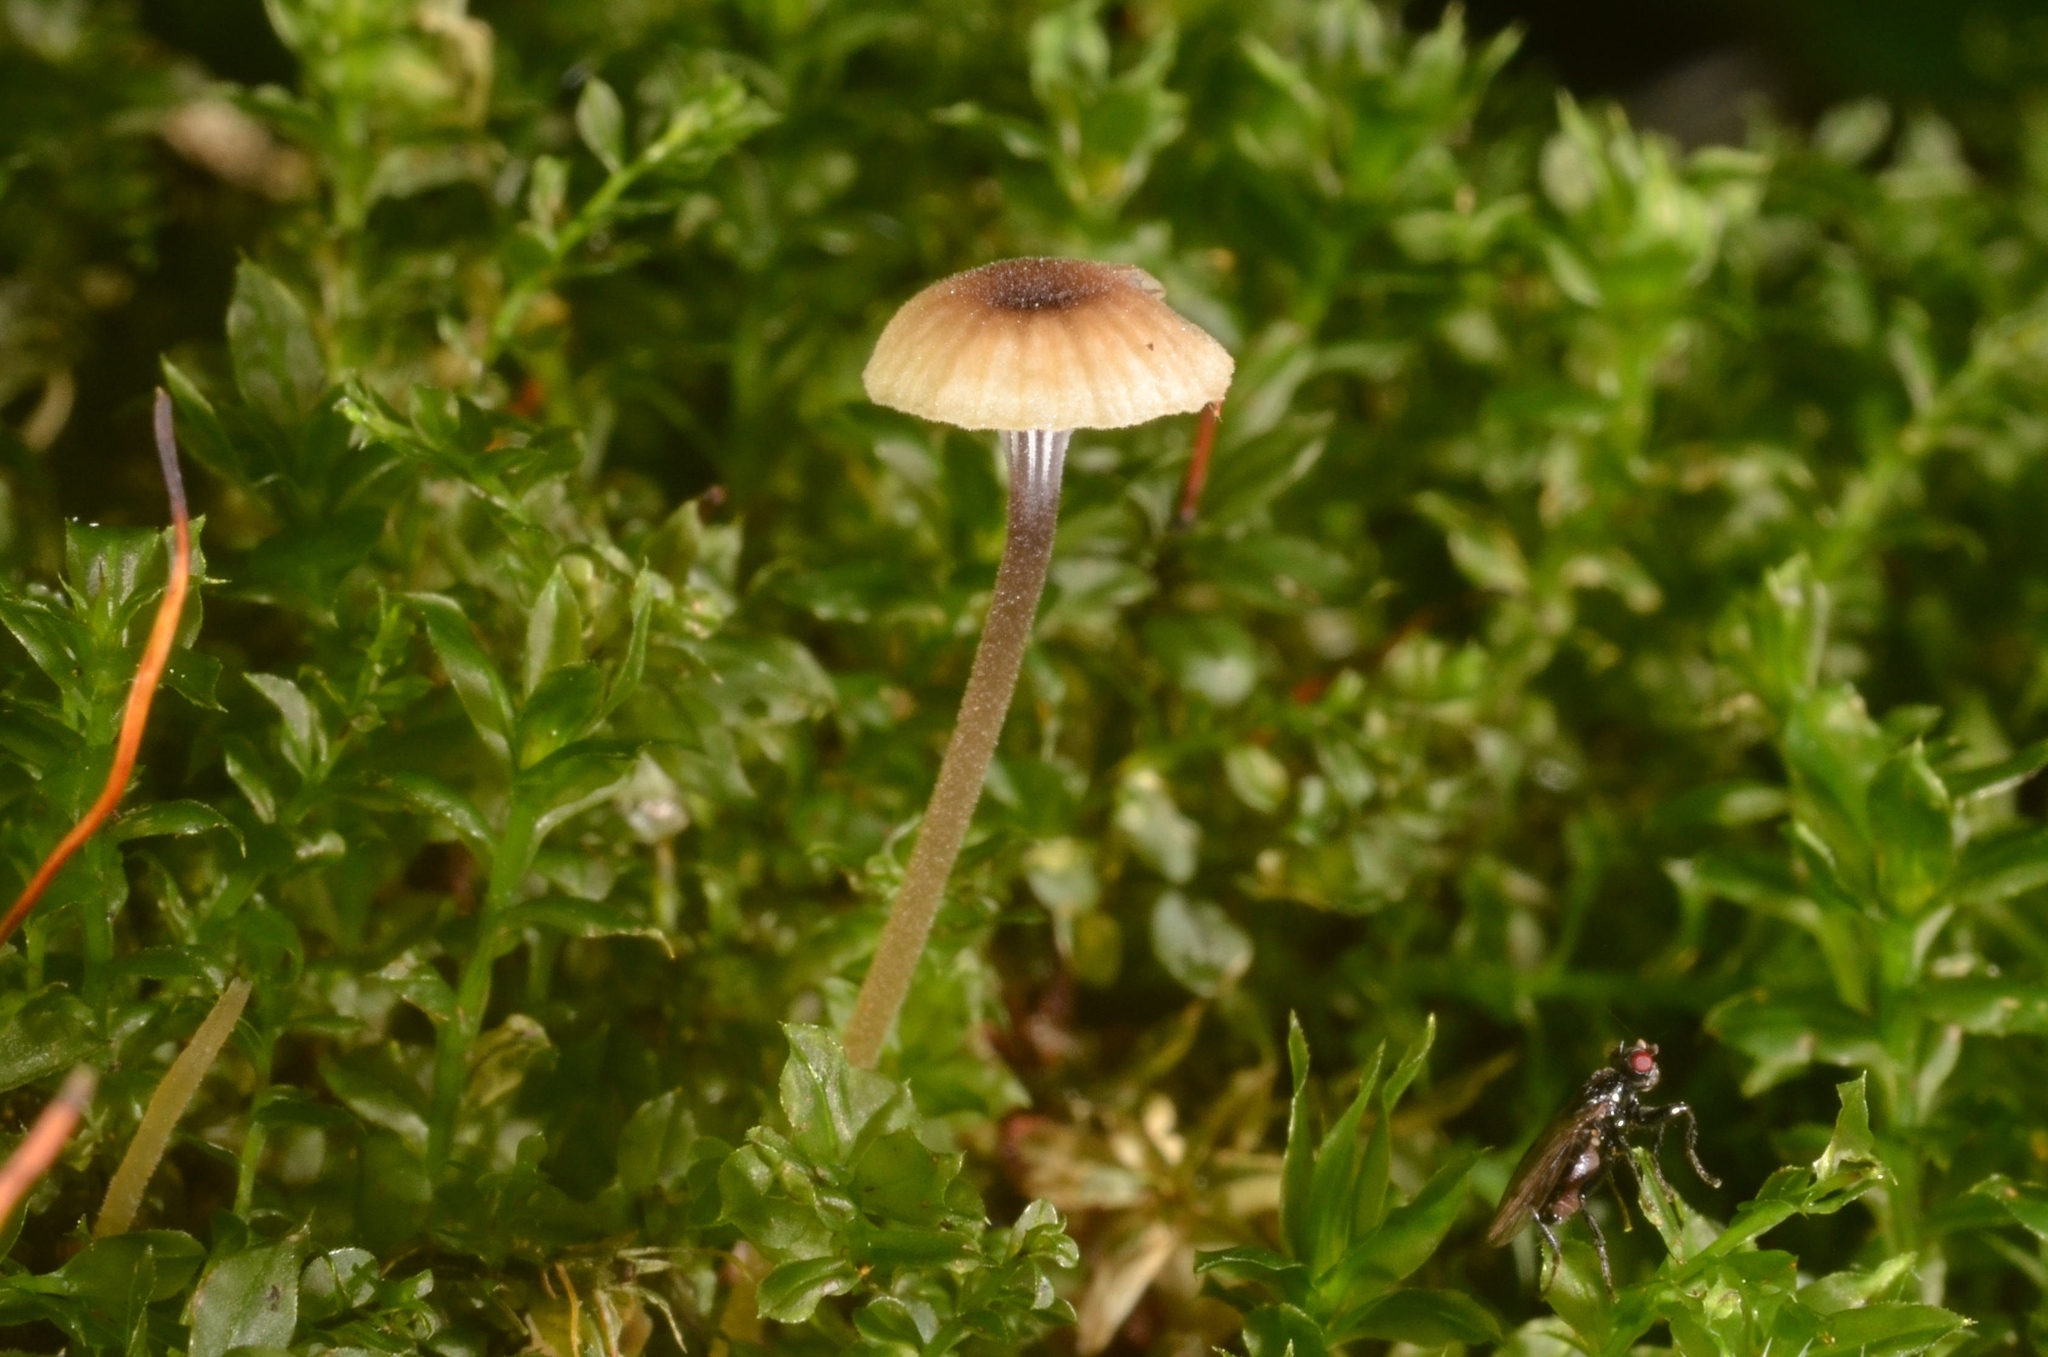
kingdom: Fungi
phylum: Basidiomycota
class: Agaricomycetes
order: Hymenochaetales
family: Rickenellaceae
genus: Rickenella
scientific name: Rickenella swartzii
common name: Collared mosscap
